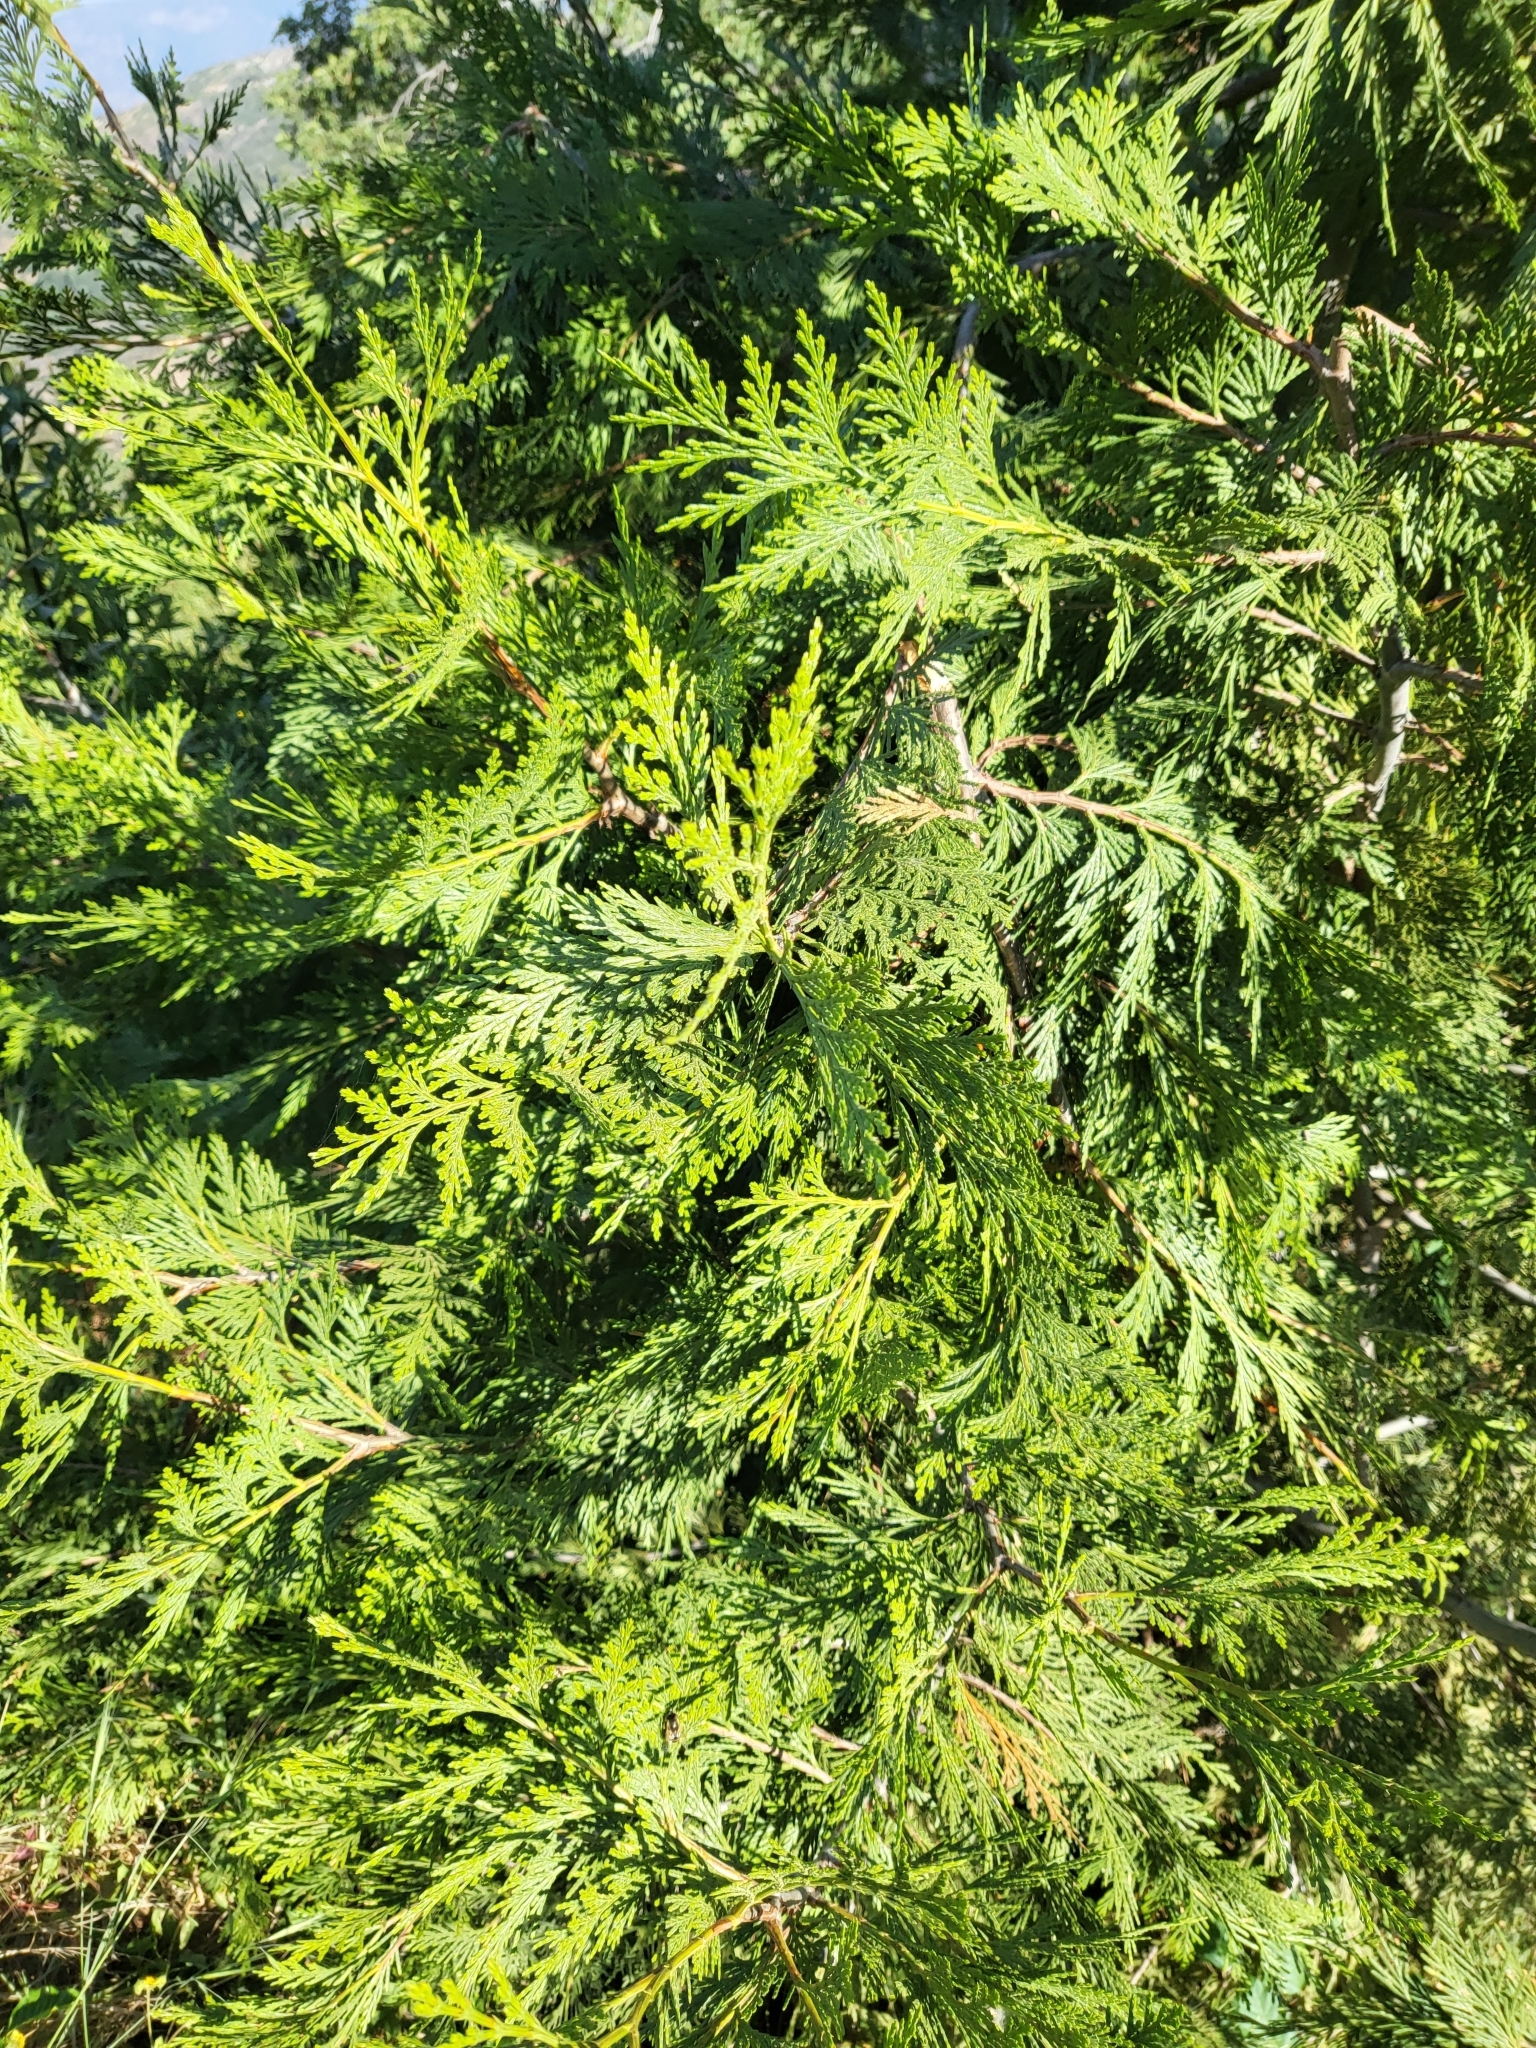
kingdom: Plantae
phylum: Tracheophyta
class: Pinopsida
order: Pinales
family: Cupressaceae
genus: Calocedrus
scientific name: Calocedrus decurrens
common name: Californian incense-cedar
